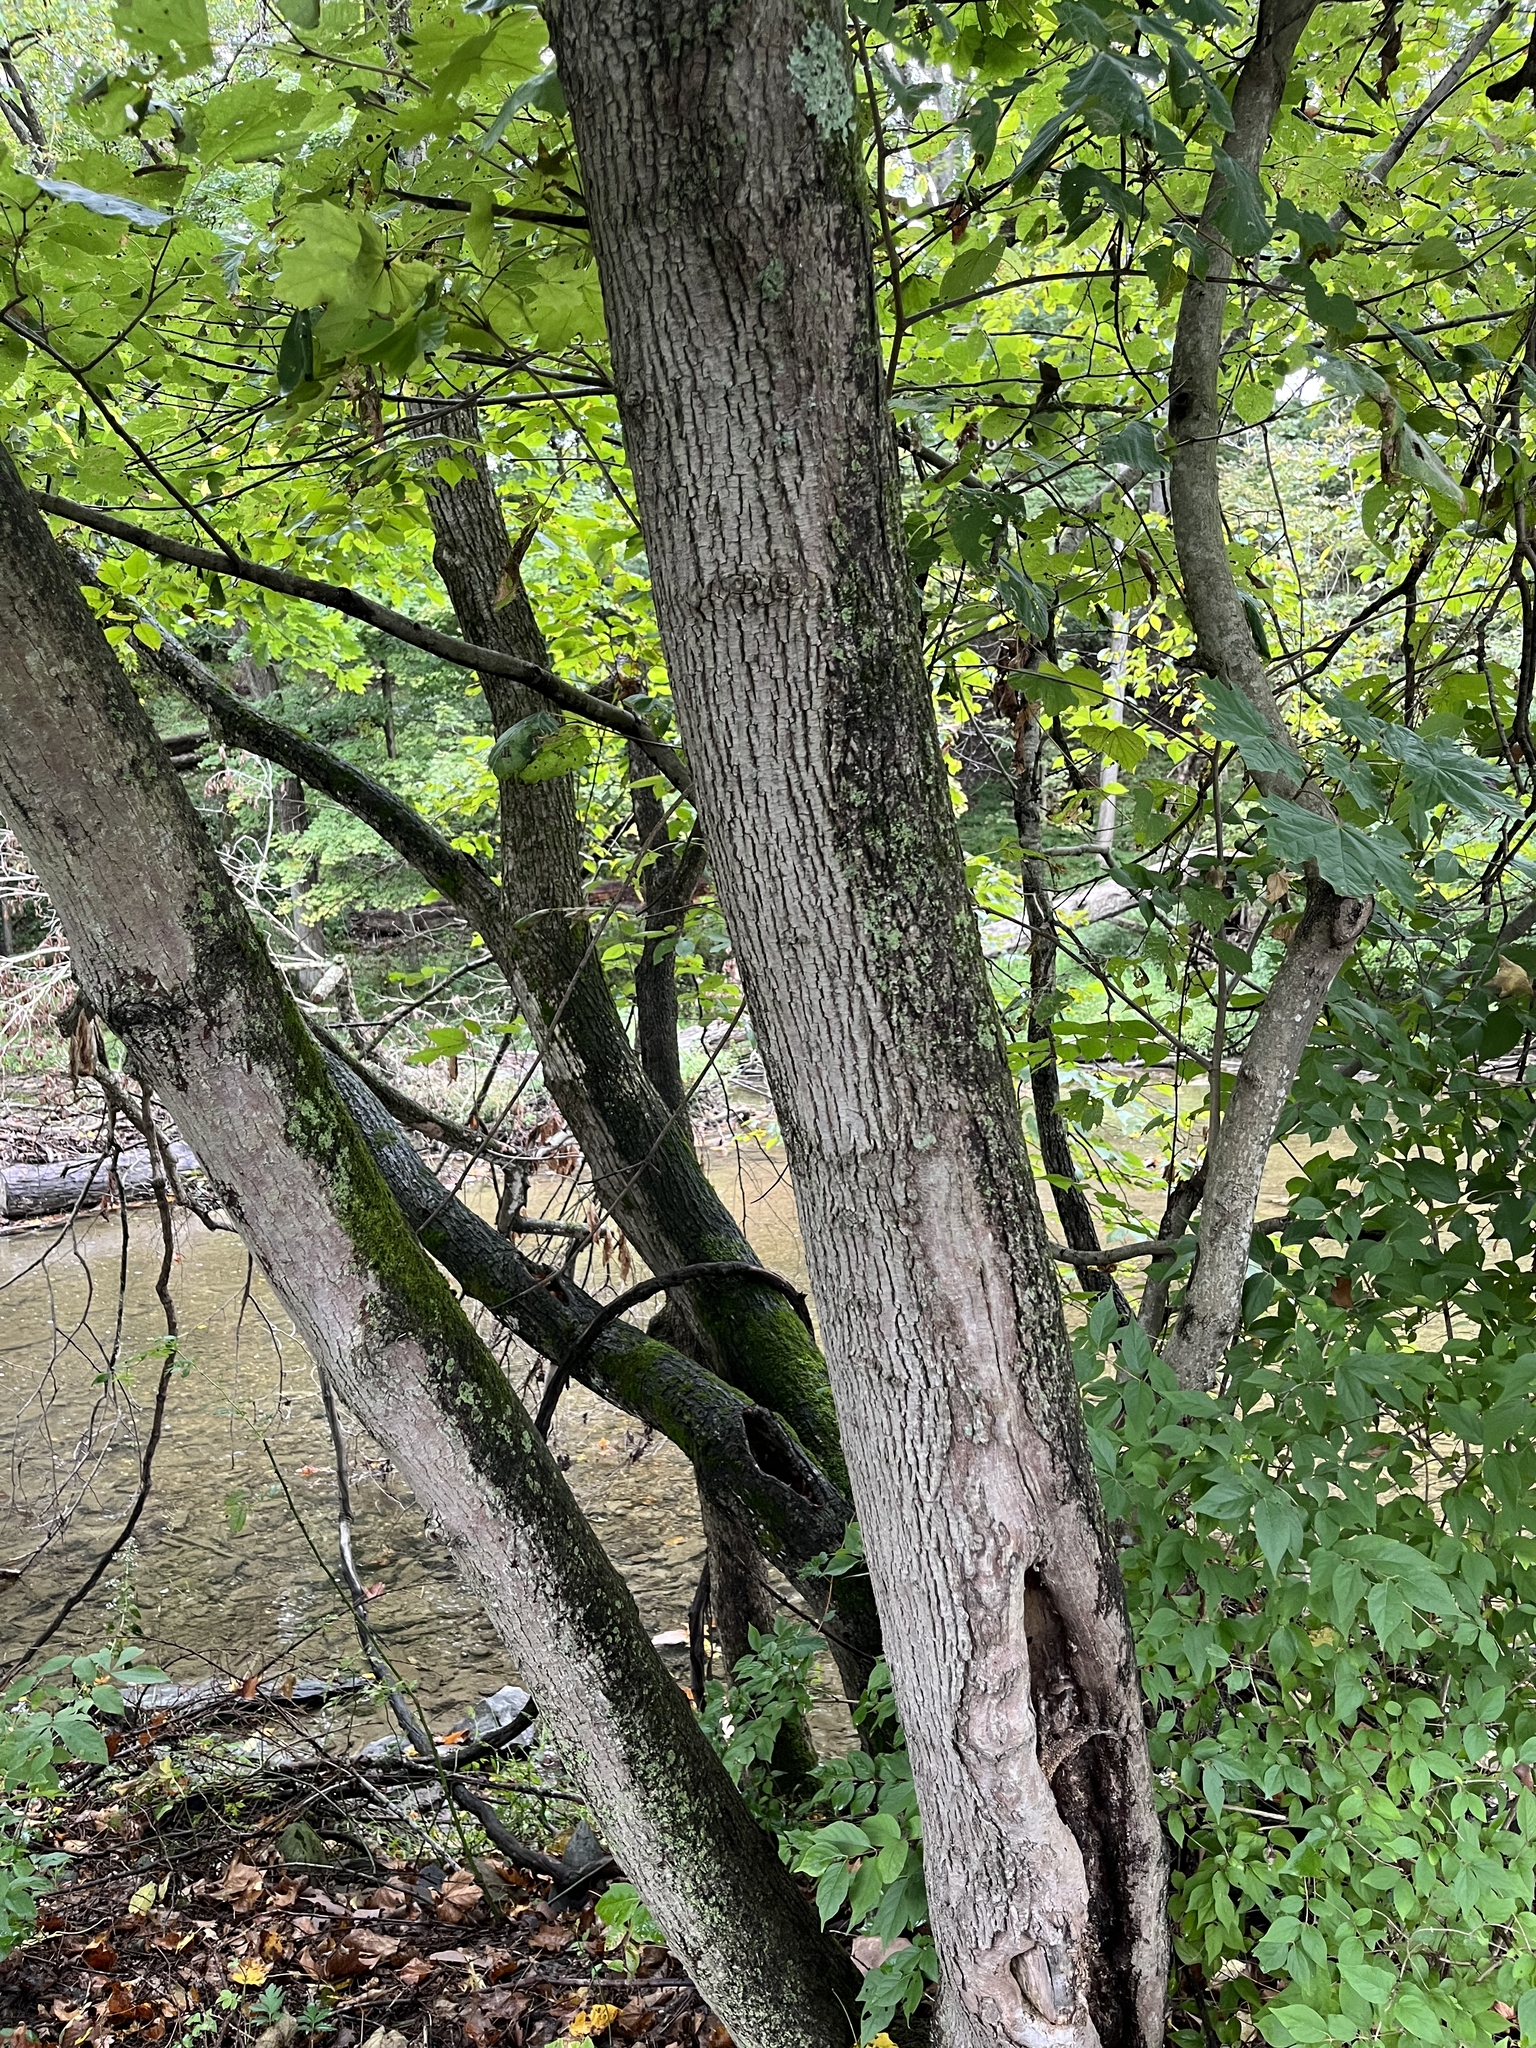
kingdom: Plantae
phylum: Tracheophyta
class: Magnoliopsida
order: Sapindales
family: Sapindaceae
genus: Acer
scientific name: Acer platanoides
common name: Norway maple
